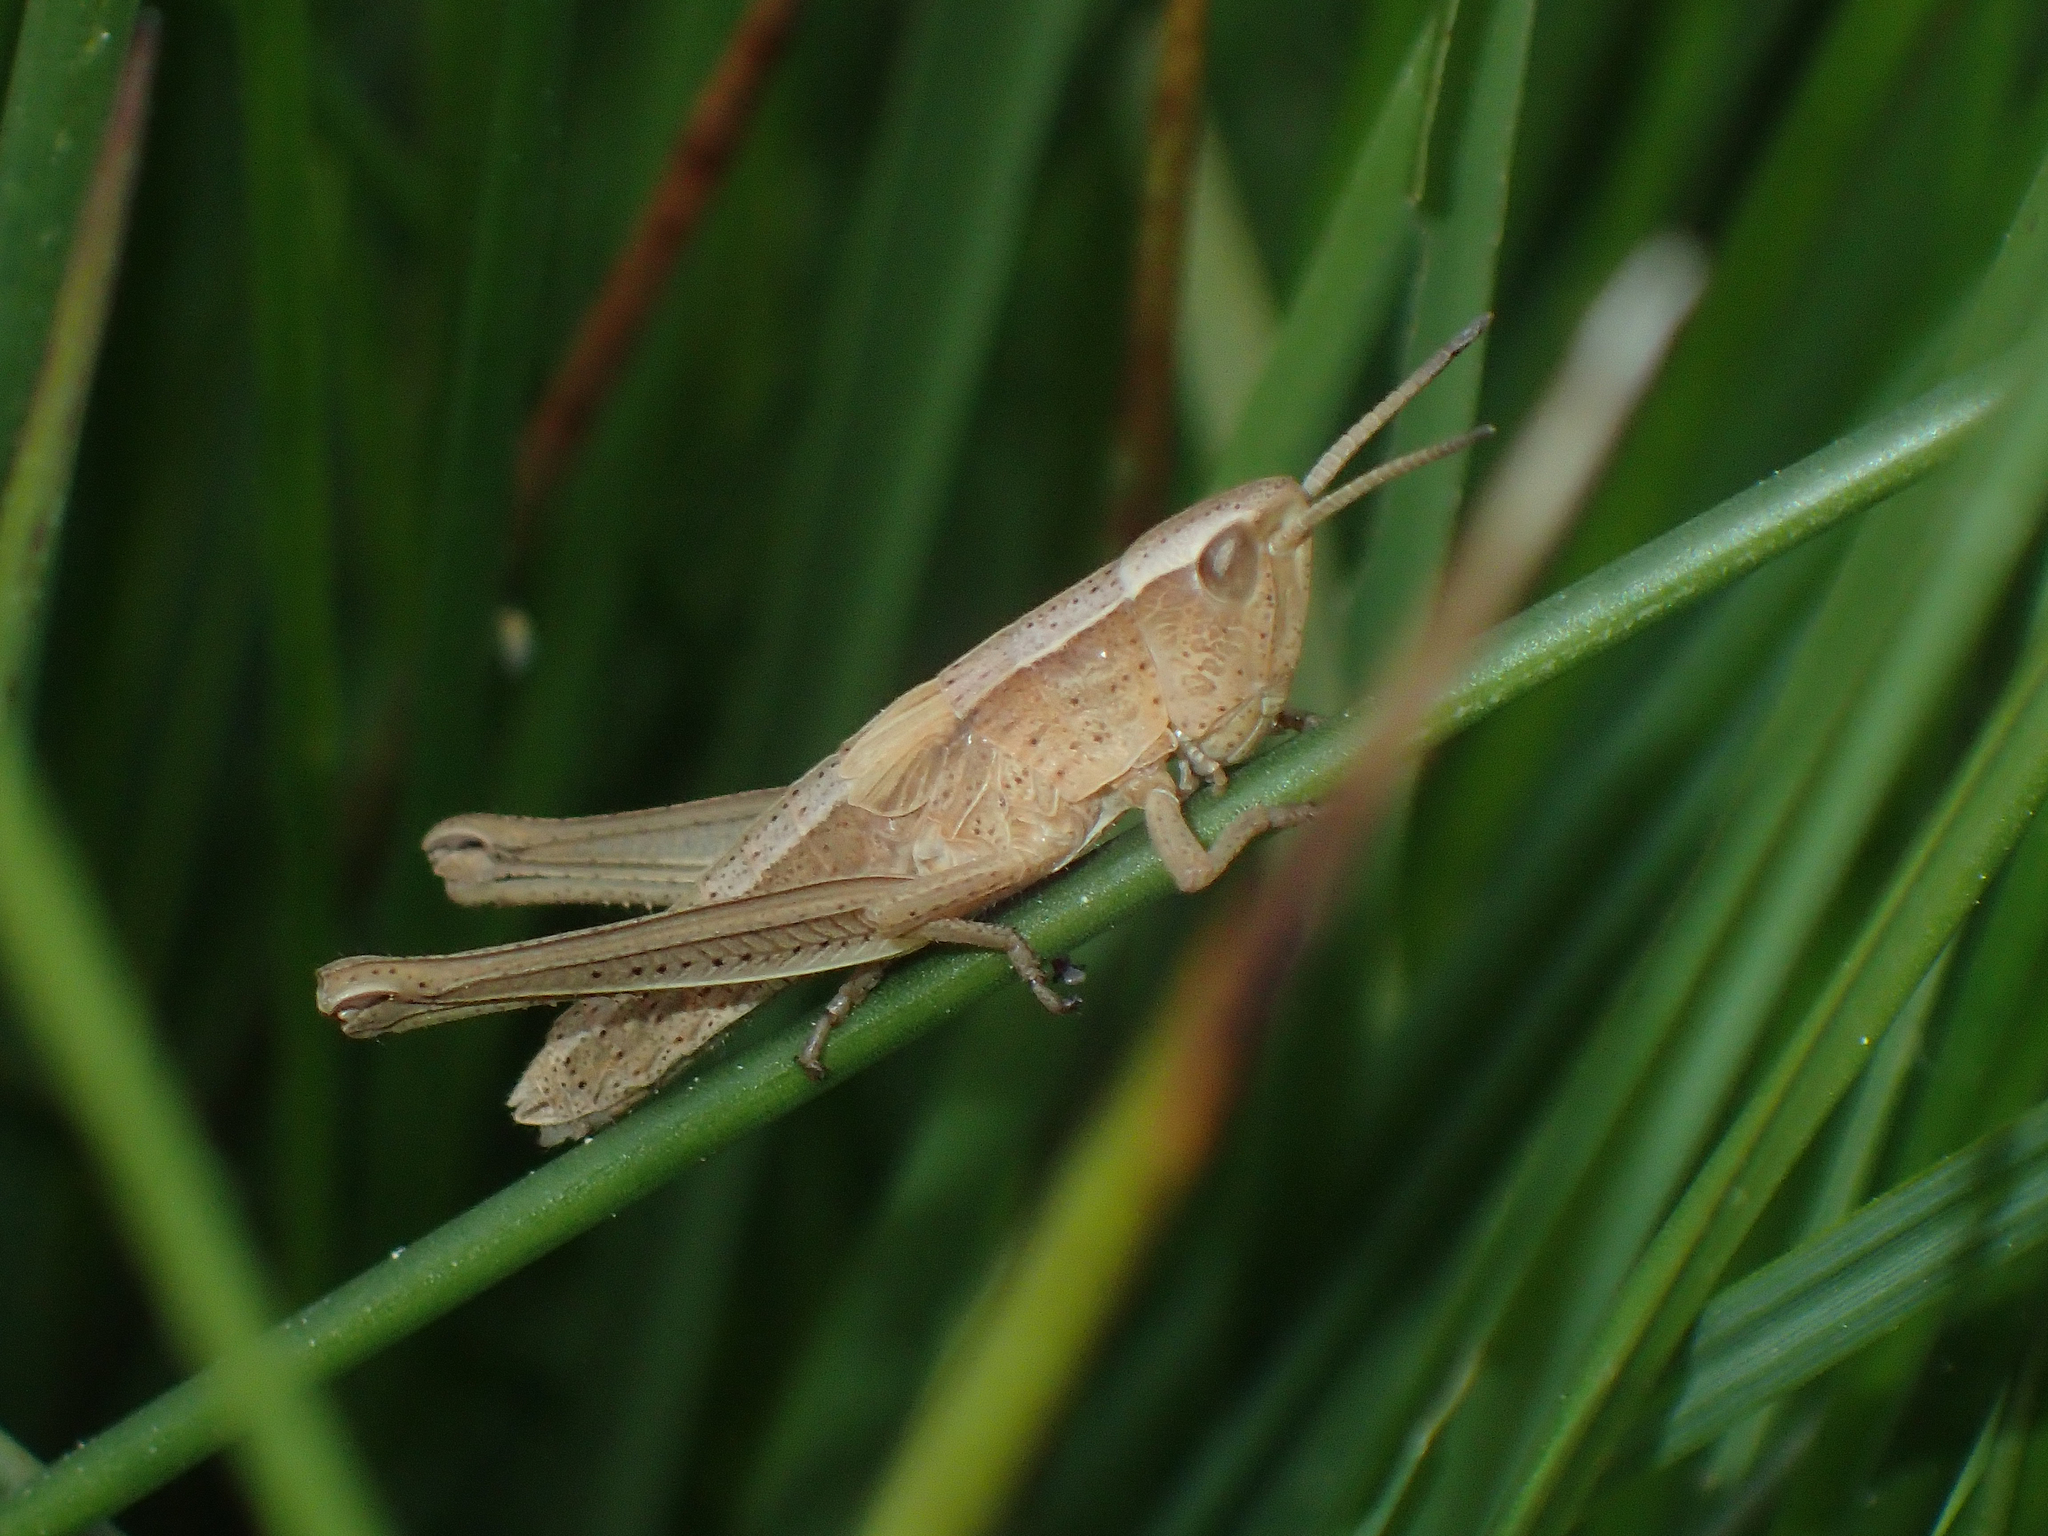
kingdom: Animalia
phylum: Arthropoda
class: Insecta
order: Orthoptera
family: Acrididae
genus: Chrysochraon
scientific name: Chrysochraon dispar
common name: Large gold grasshopper
